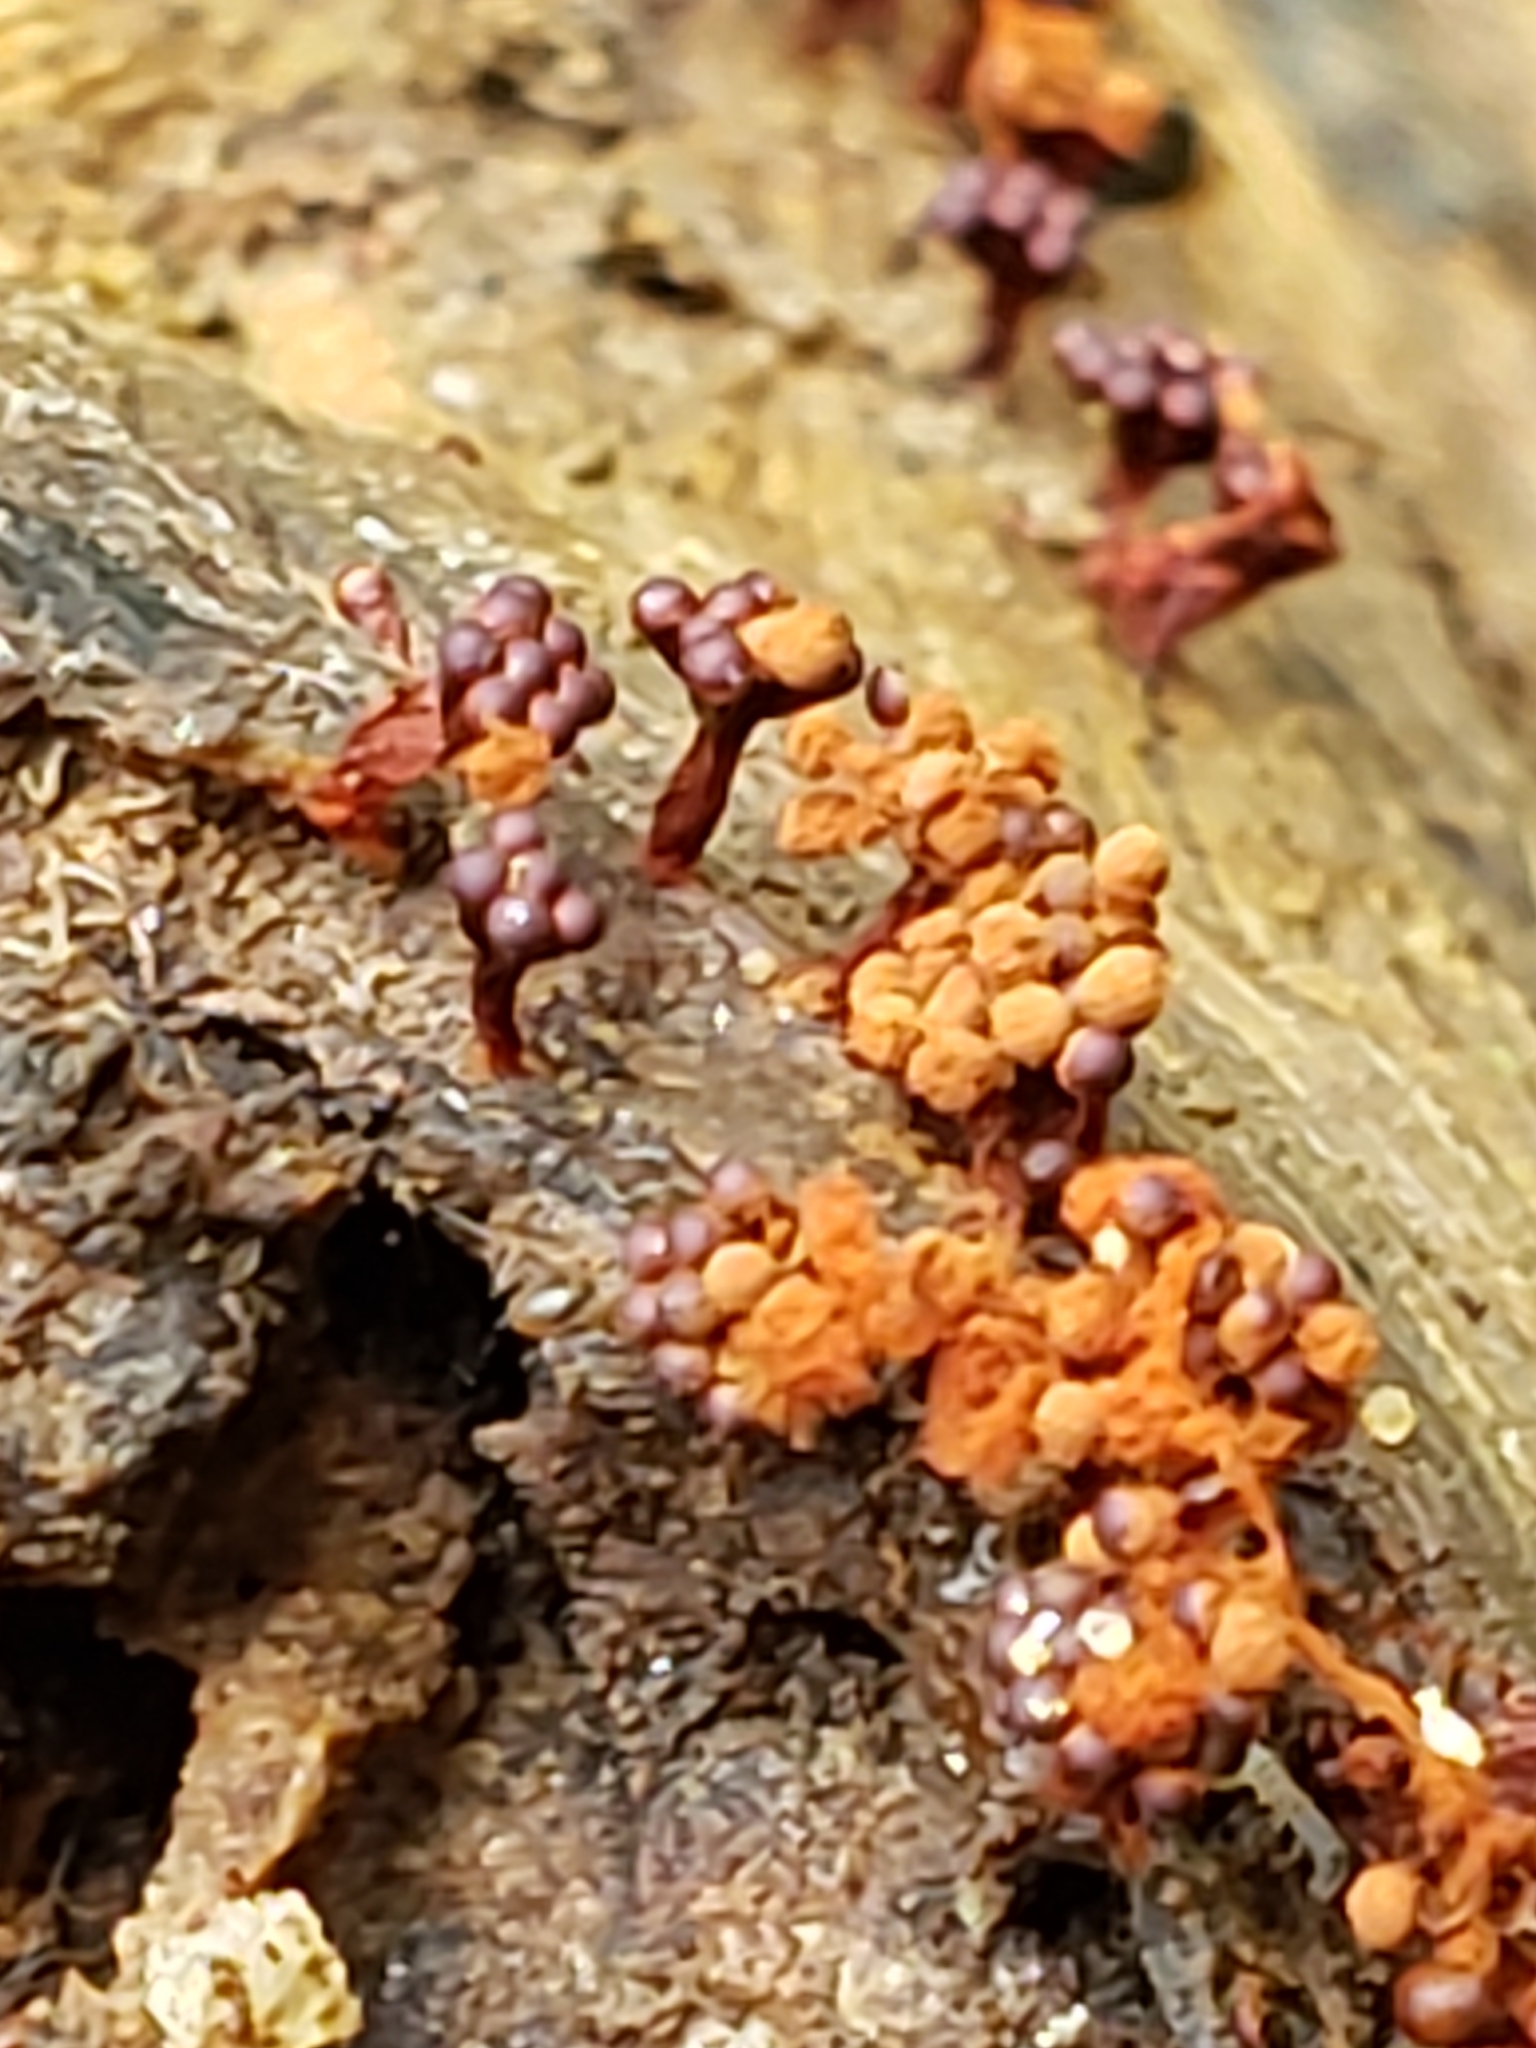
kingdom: Protozoa
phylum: Mycetozoa
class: Myxomycetes
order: Trichiales
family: Trichiaceae
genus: Metatrichia
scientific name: Metatrichia vesparia
